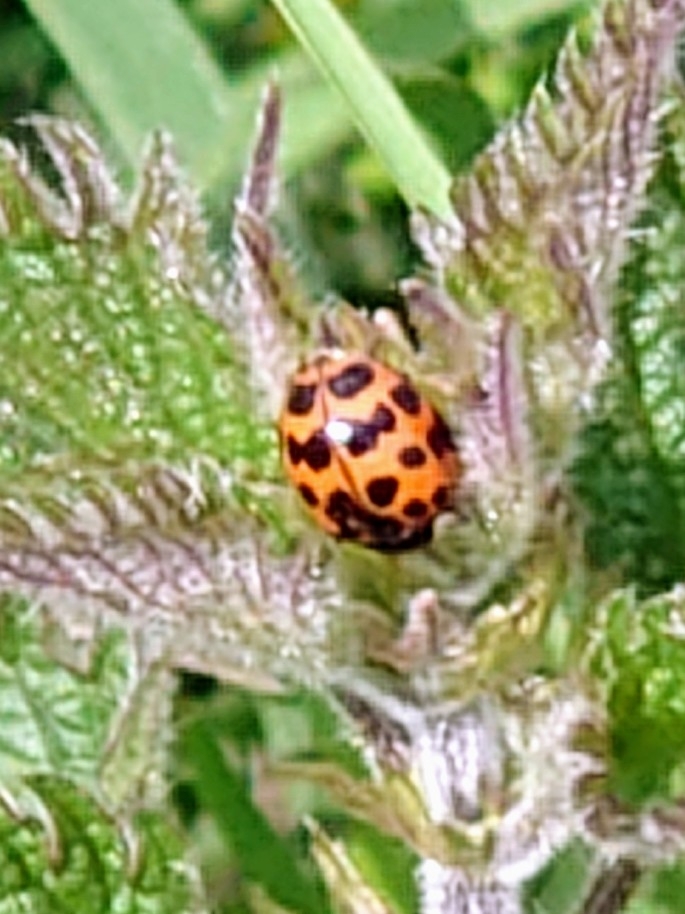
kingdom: Animalia
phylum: Arthropoda
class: Insecta
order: Coleoptera
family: Coccinellidae
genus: Harmonia
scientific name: Harmonia axyridis
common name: Harlequin ladybird
